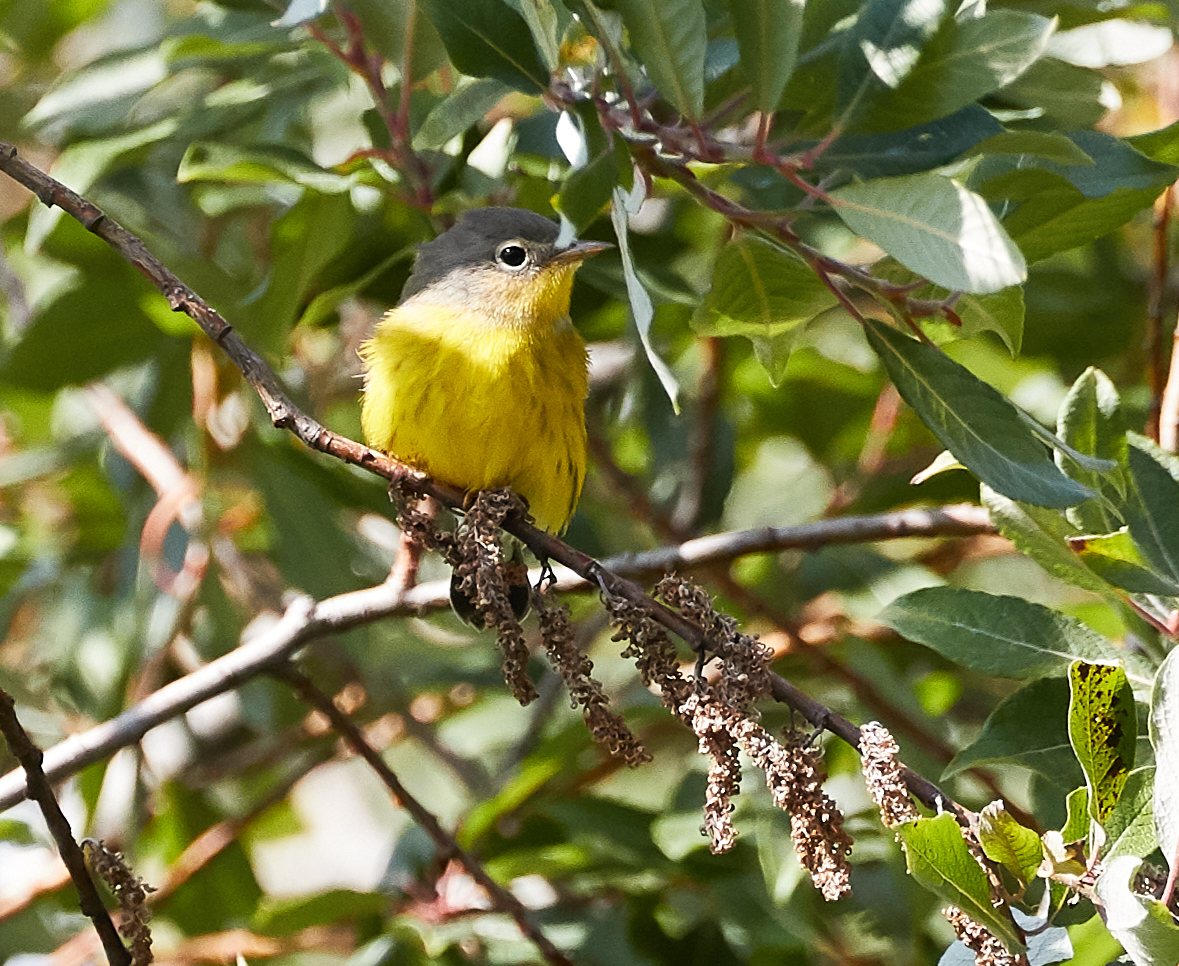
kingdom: Animalia
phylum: Chordata
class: Aves
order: Passeriformes
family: Parulidae
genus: Setophaga
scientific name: Setophaga magnolia
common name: Magnolia warbler
